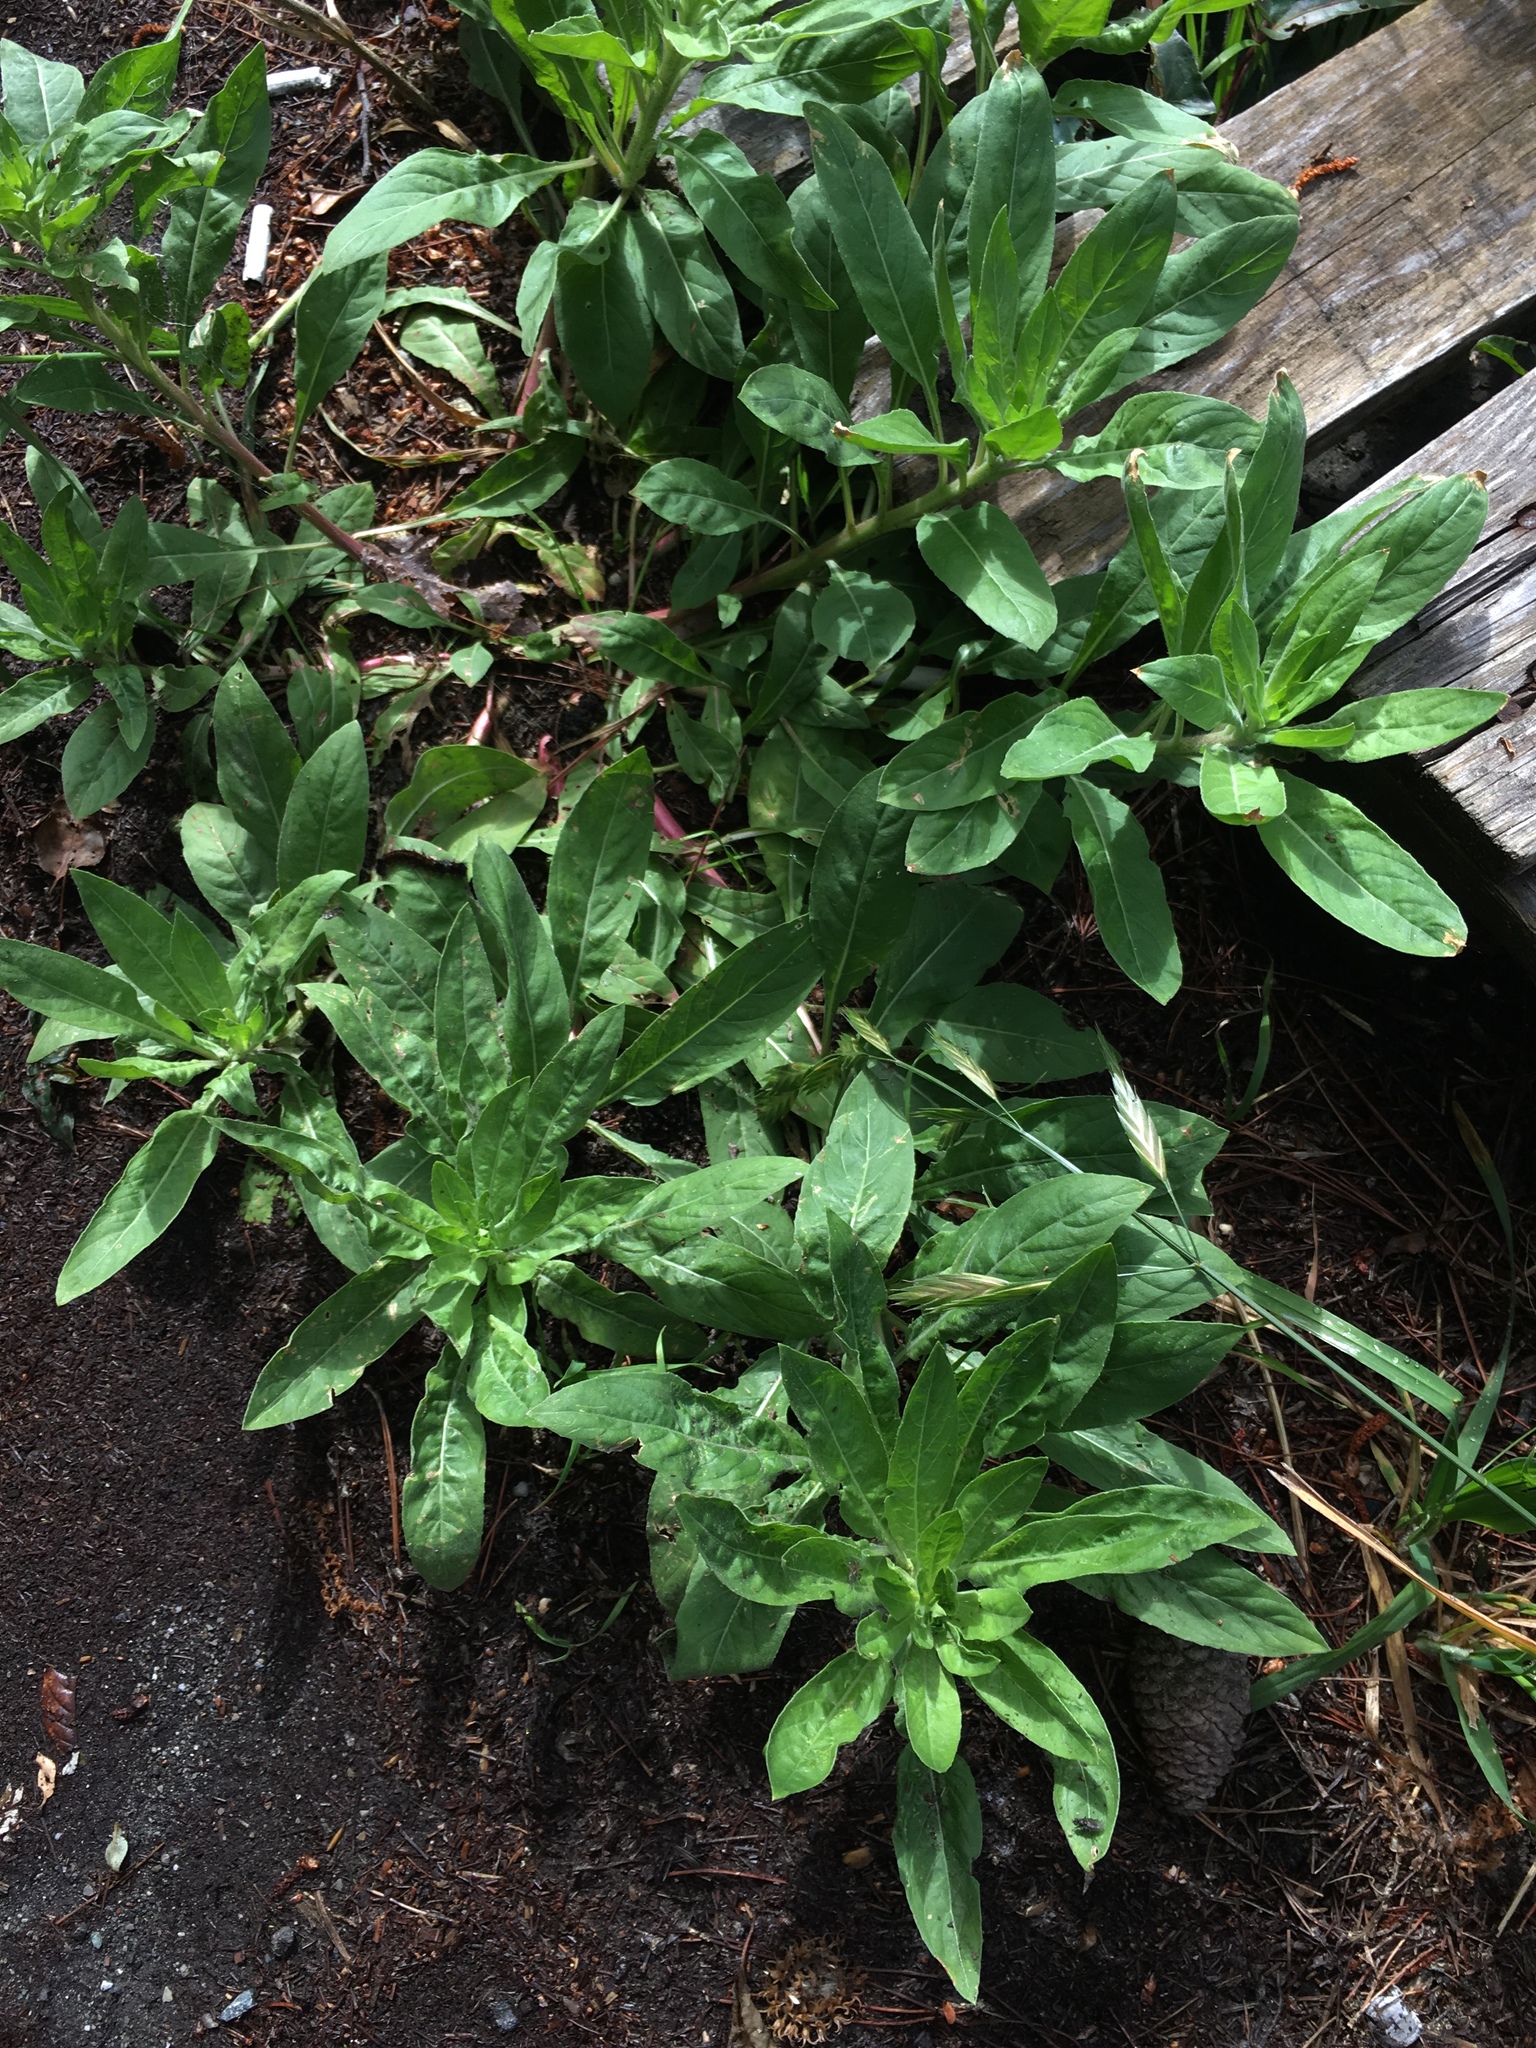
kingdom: Plantae
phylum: Tracheophyta
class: Magnoliopsida
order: Myrtales
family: Onagraceae
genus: Oenothera
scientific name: Oenothera glazioviana
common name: Large-flowered evening-primrose
